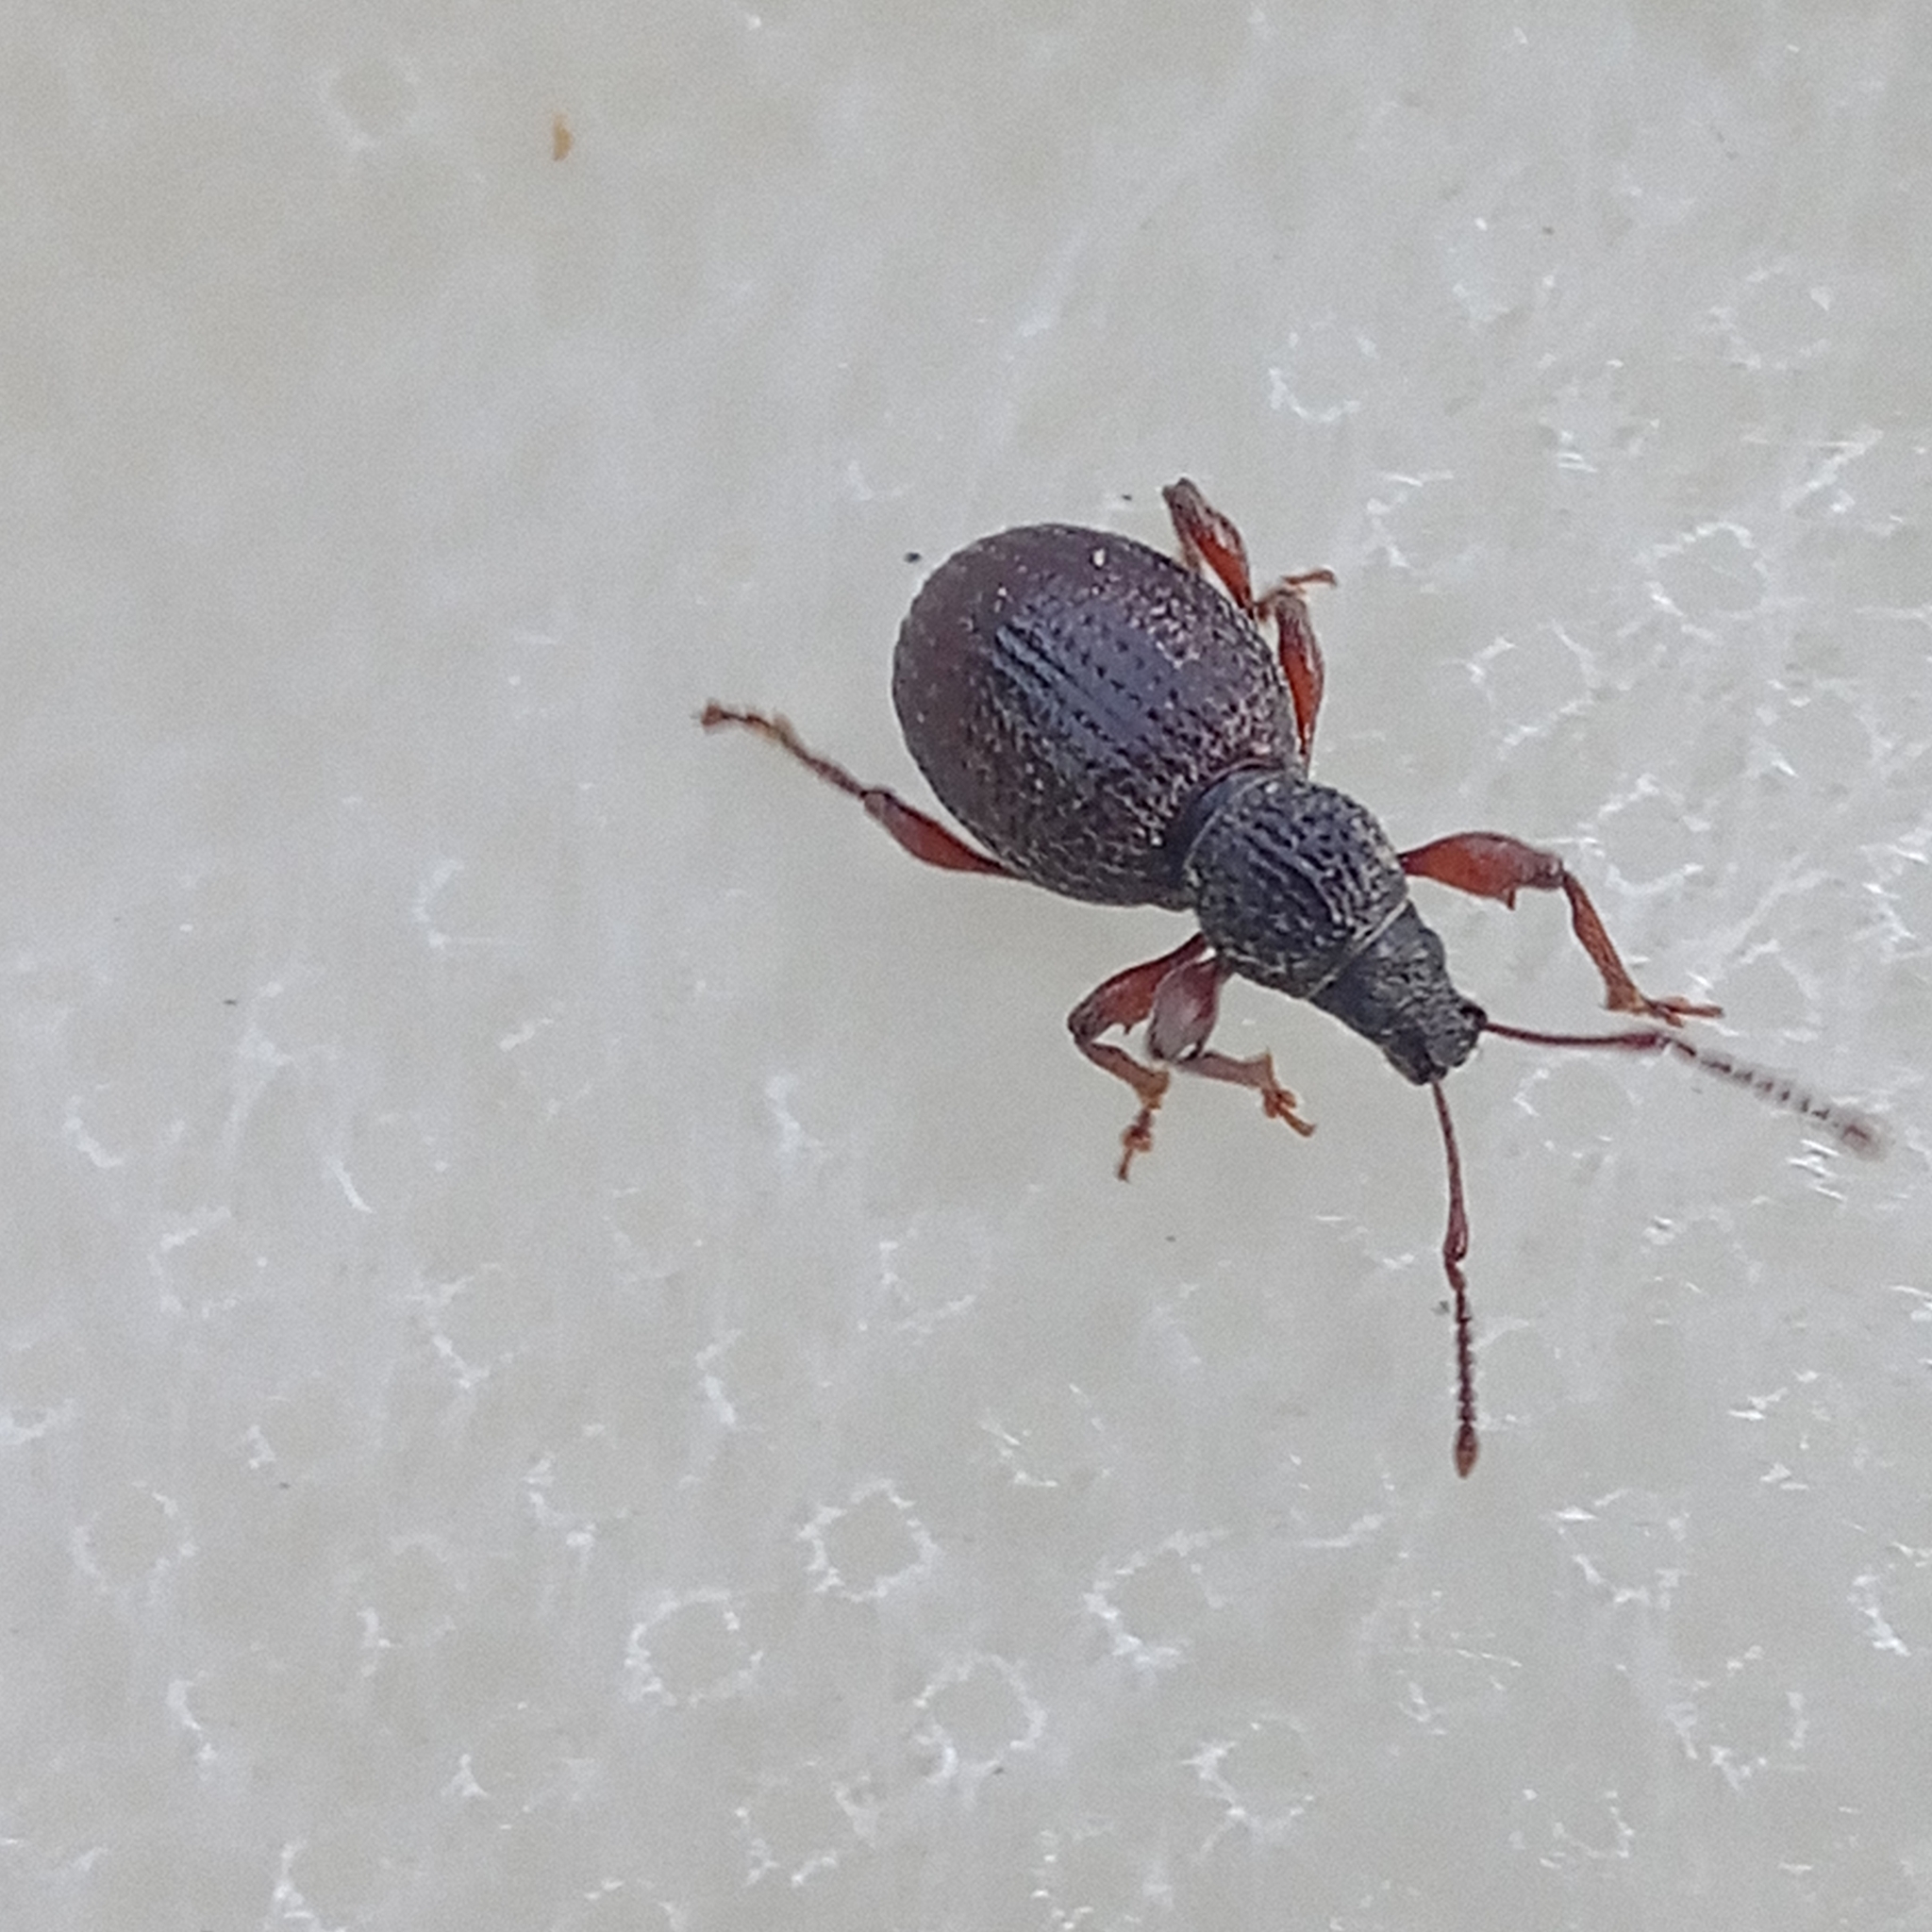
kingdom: Animalia
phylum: Arthropoda
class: Insecta
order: Coleoptera
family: Curculionidae
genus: Otiorhynchus
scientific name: Otiorhynchus ovatus
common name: Strawberry root weevil
